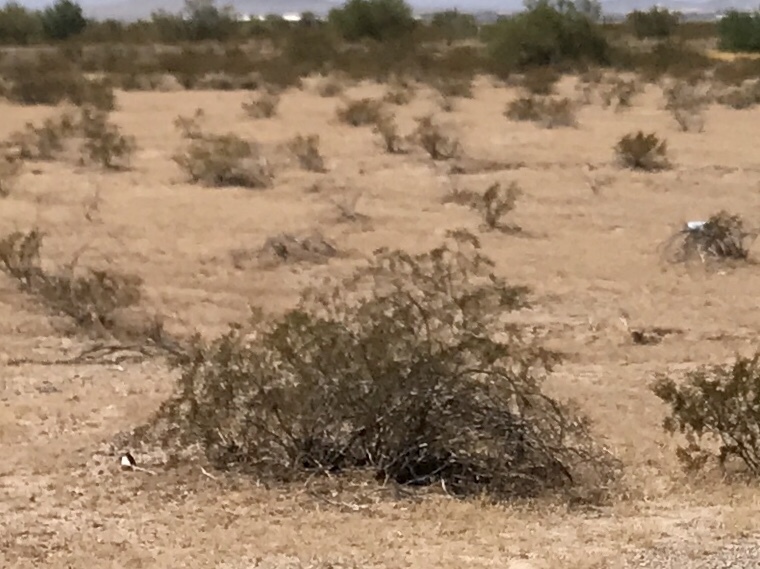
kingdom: Plantae
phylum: Tracheophyta
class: Magnoliopsida
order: Zygophyllales
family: Zygophyllaceae
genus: Larrea
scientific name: Larrea tridentata
